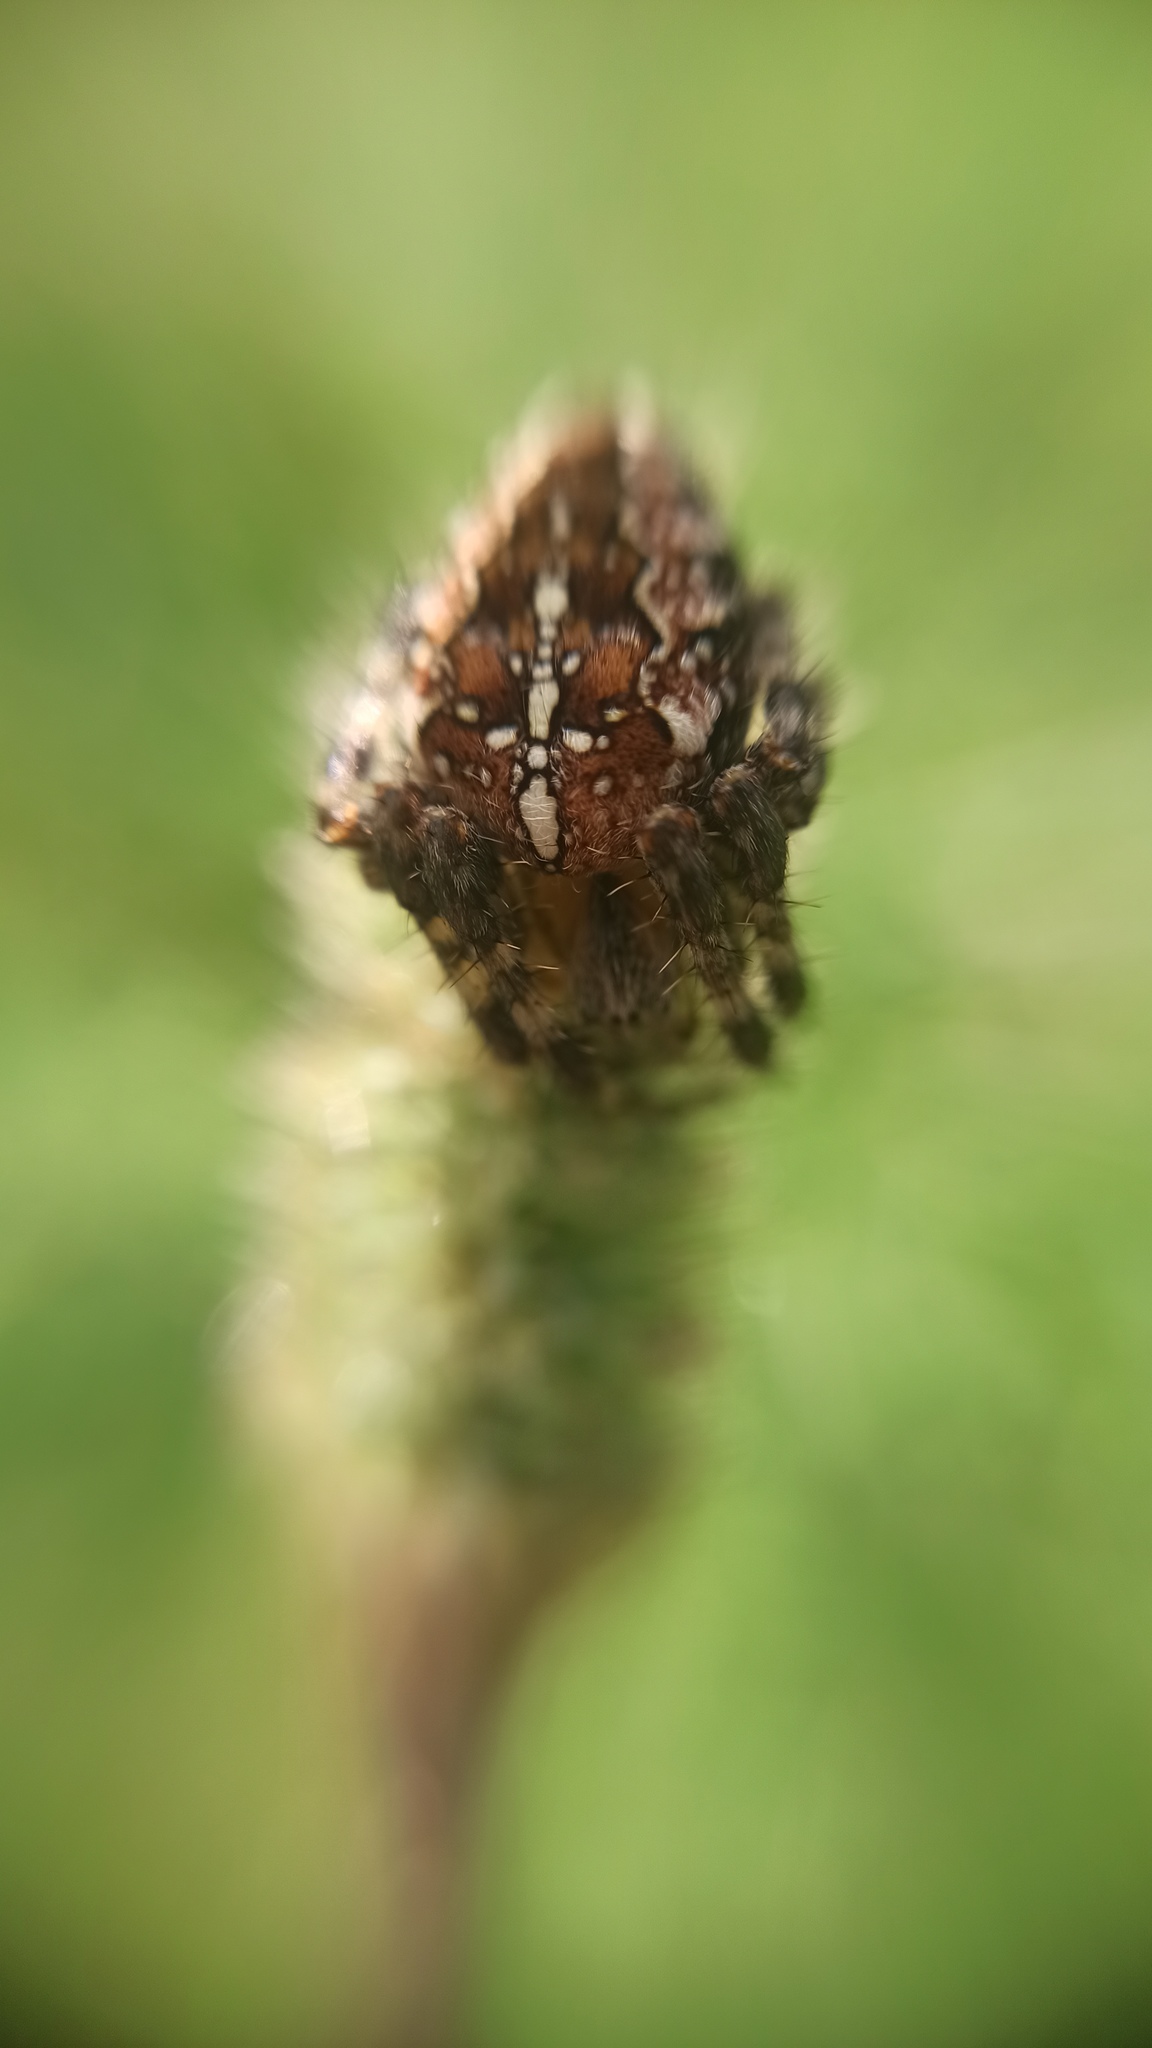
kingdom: Animalia
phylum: Arthropoda
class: Arachnida
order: Araneae
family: Araneidae
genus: Araneus
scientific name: Araneus diadematus
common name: Cross orbweaver
